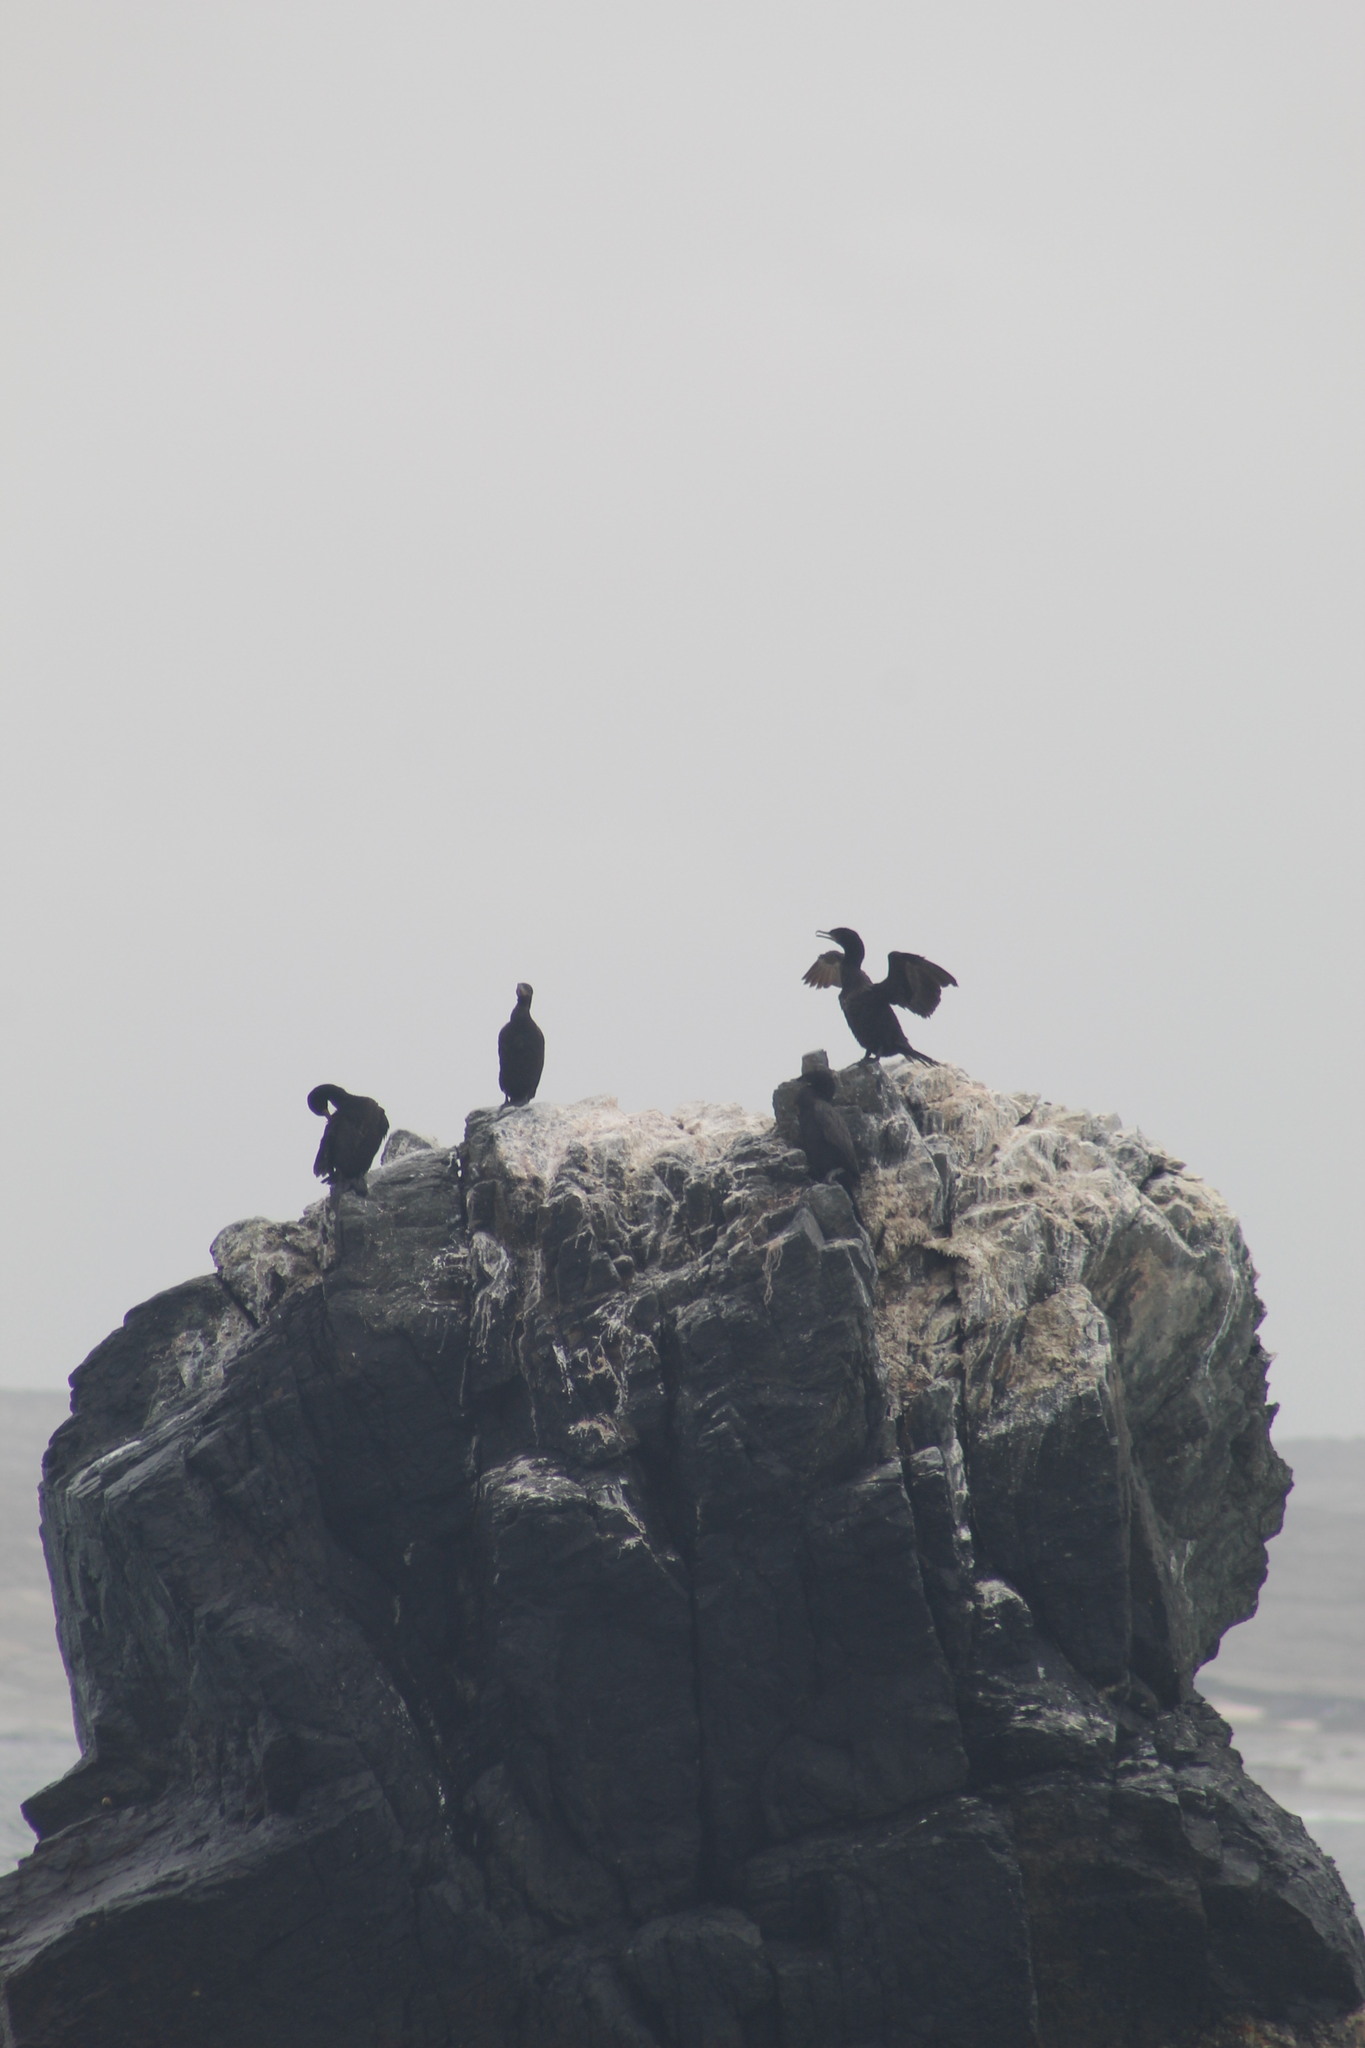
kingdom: Animalia
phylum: Chordata
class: Aves
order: Suliformes
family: Phalacrocoracidae
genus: Phalacrocorax
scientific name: Phalacrocorax brasilianus
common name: Neotropic cormorant
